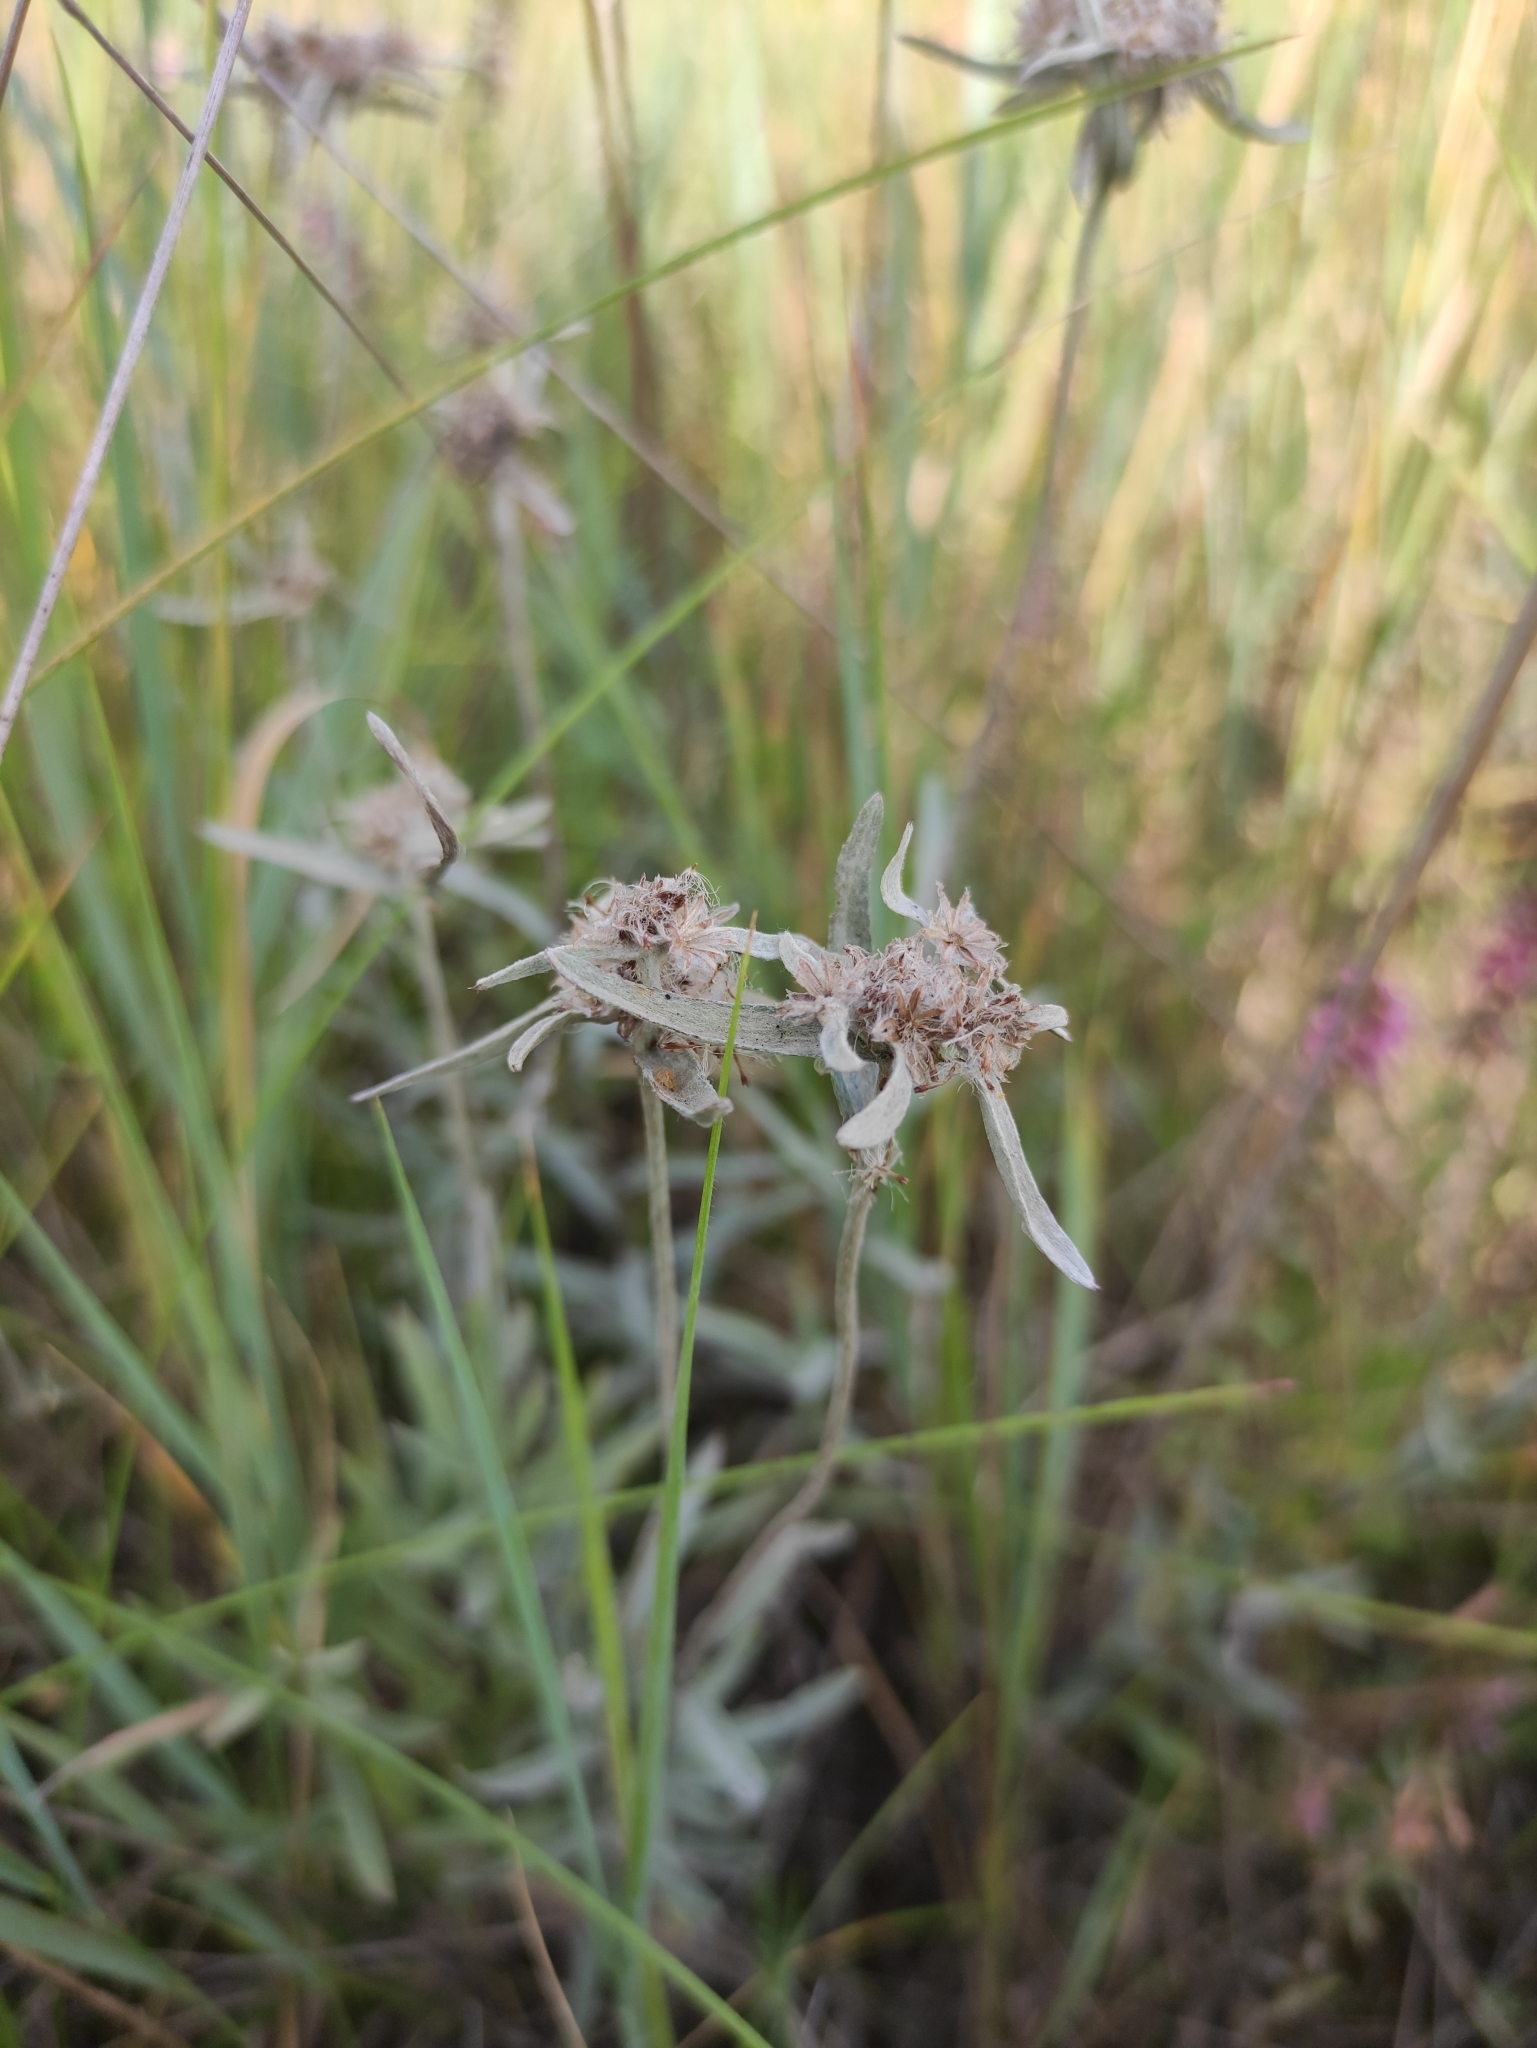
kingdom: Plantae
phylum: Tracheophyta
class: Magnoliopsida
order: Asterales
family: Asteraceae
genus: Leontopodium
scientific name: Leontopodium leontopodioides
